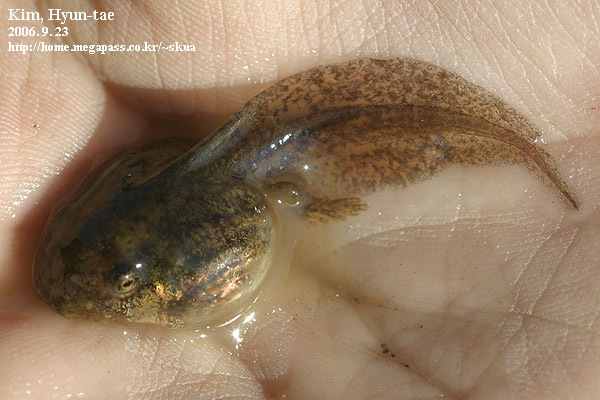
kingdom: Animalia
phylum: Chordata
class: Amphibia
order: Anura
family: Hylidae
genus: Dryophytes
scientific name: Dryophytes japonicus
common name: Japanese treefrog
